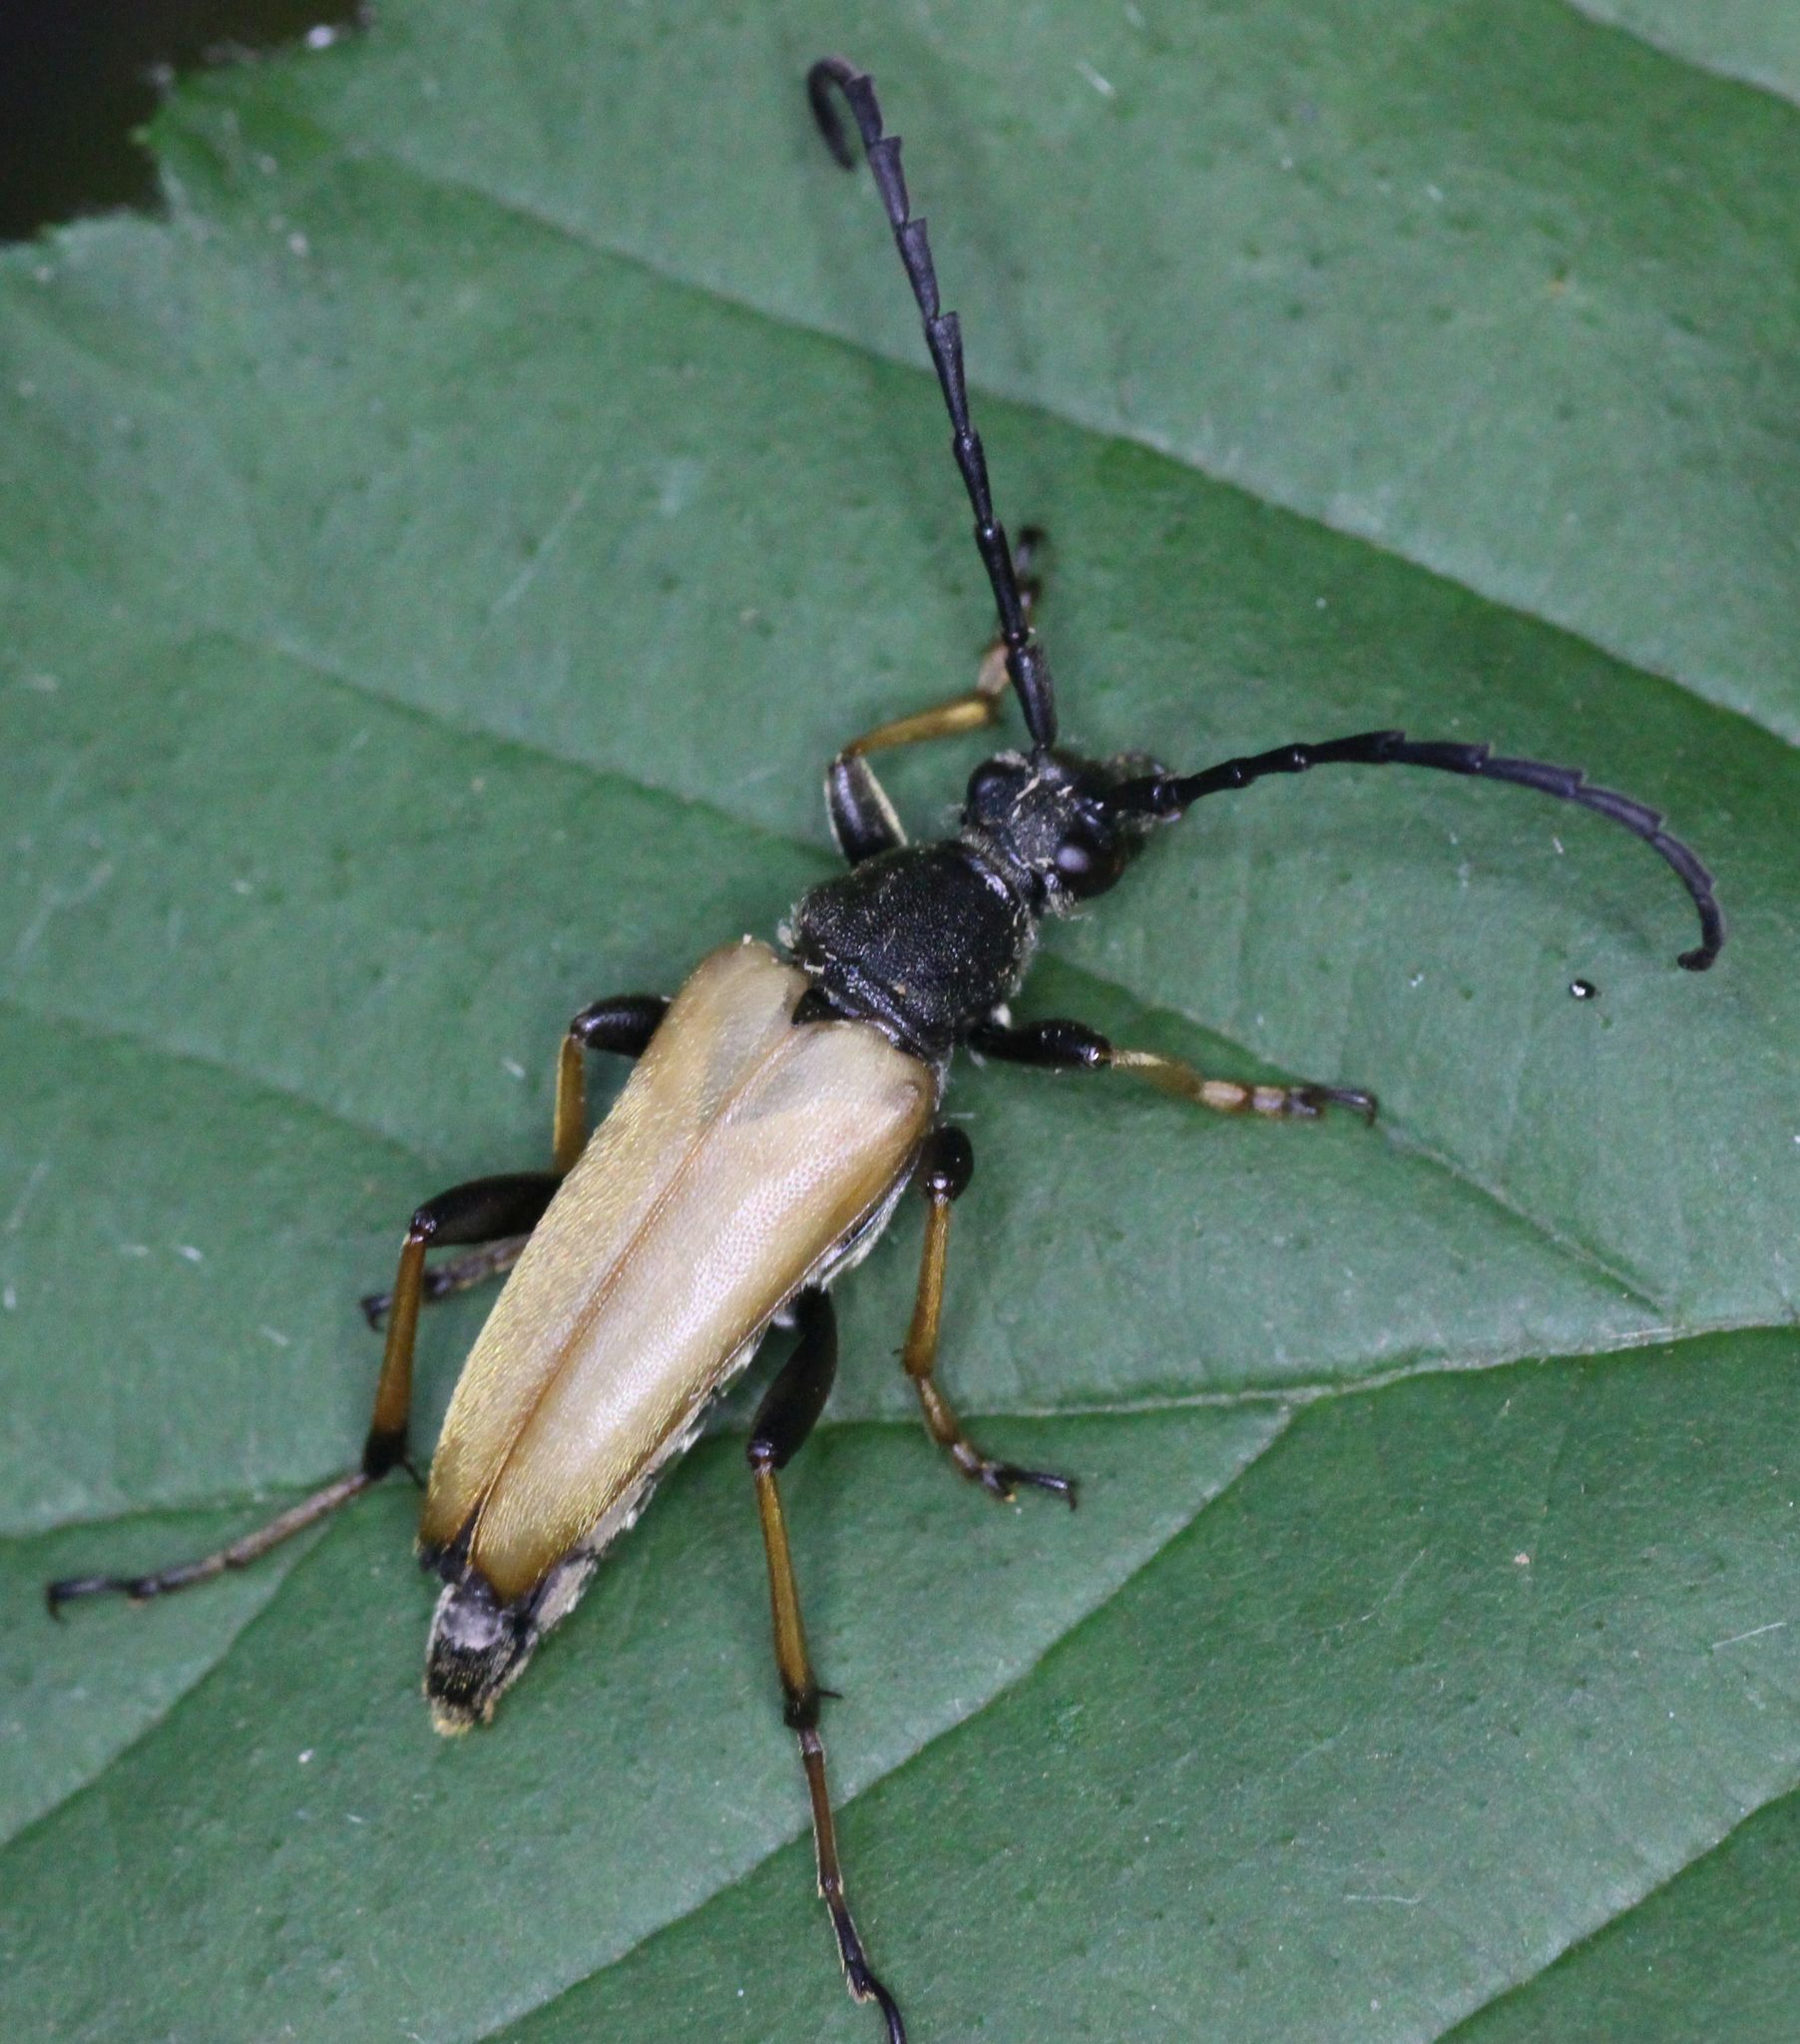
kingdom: Animalia
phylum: Arthropoda
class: Insecta
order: Coleoptera
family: Cerambycidae
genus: Stictoleptura
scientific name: Stictoleptura rubra
